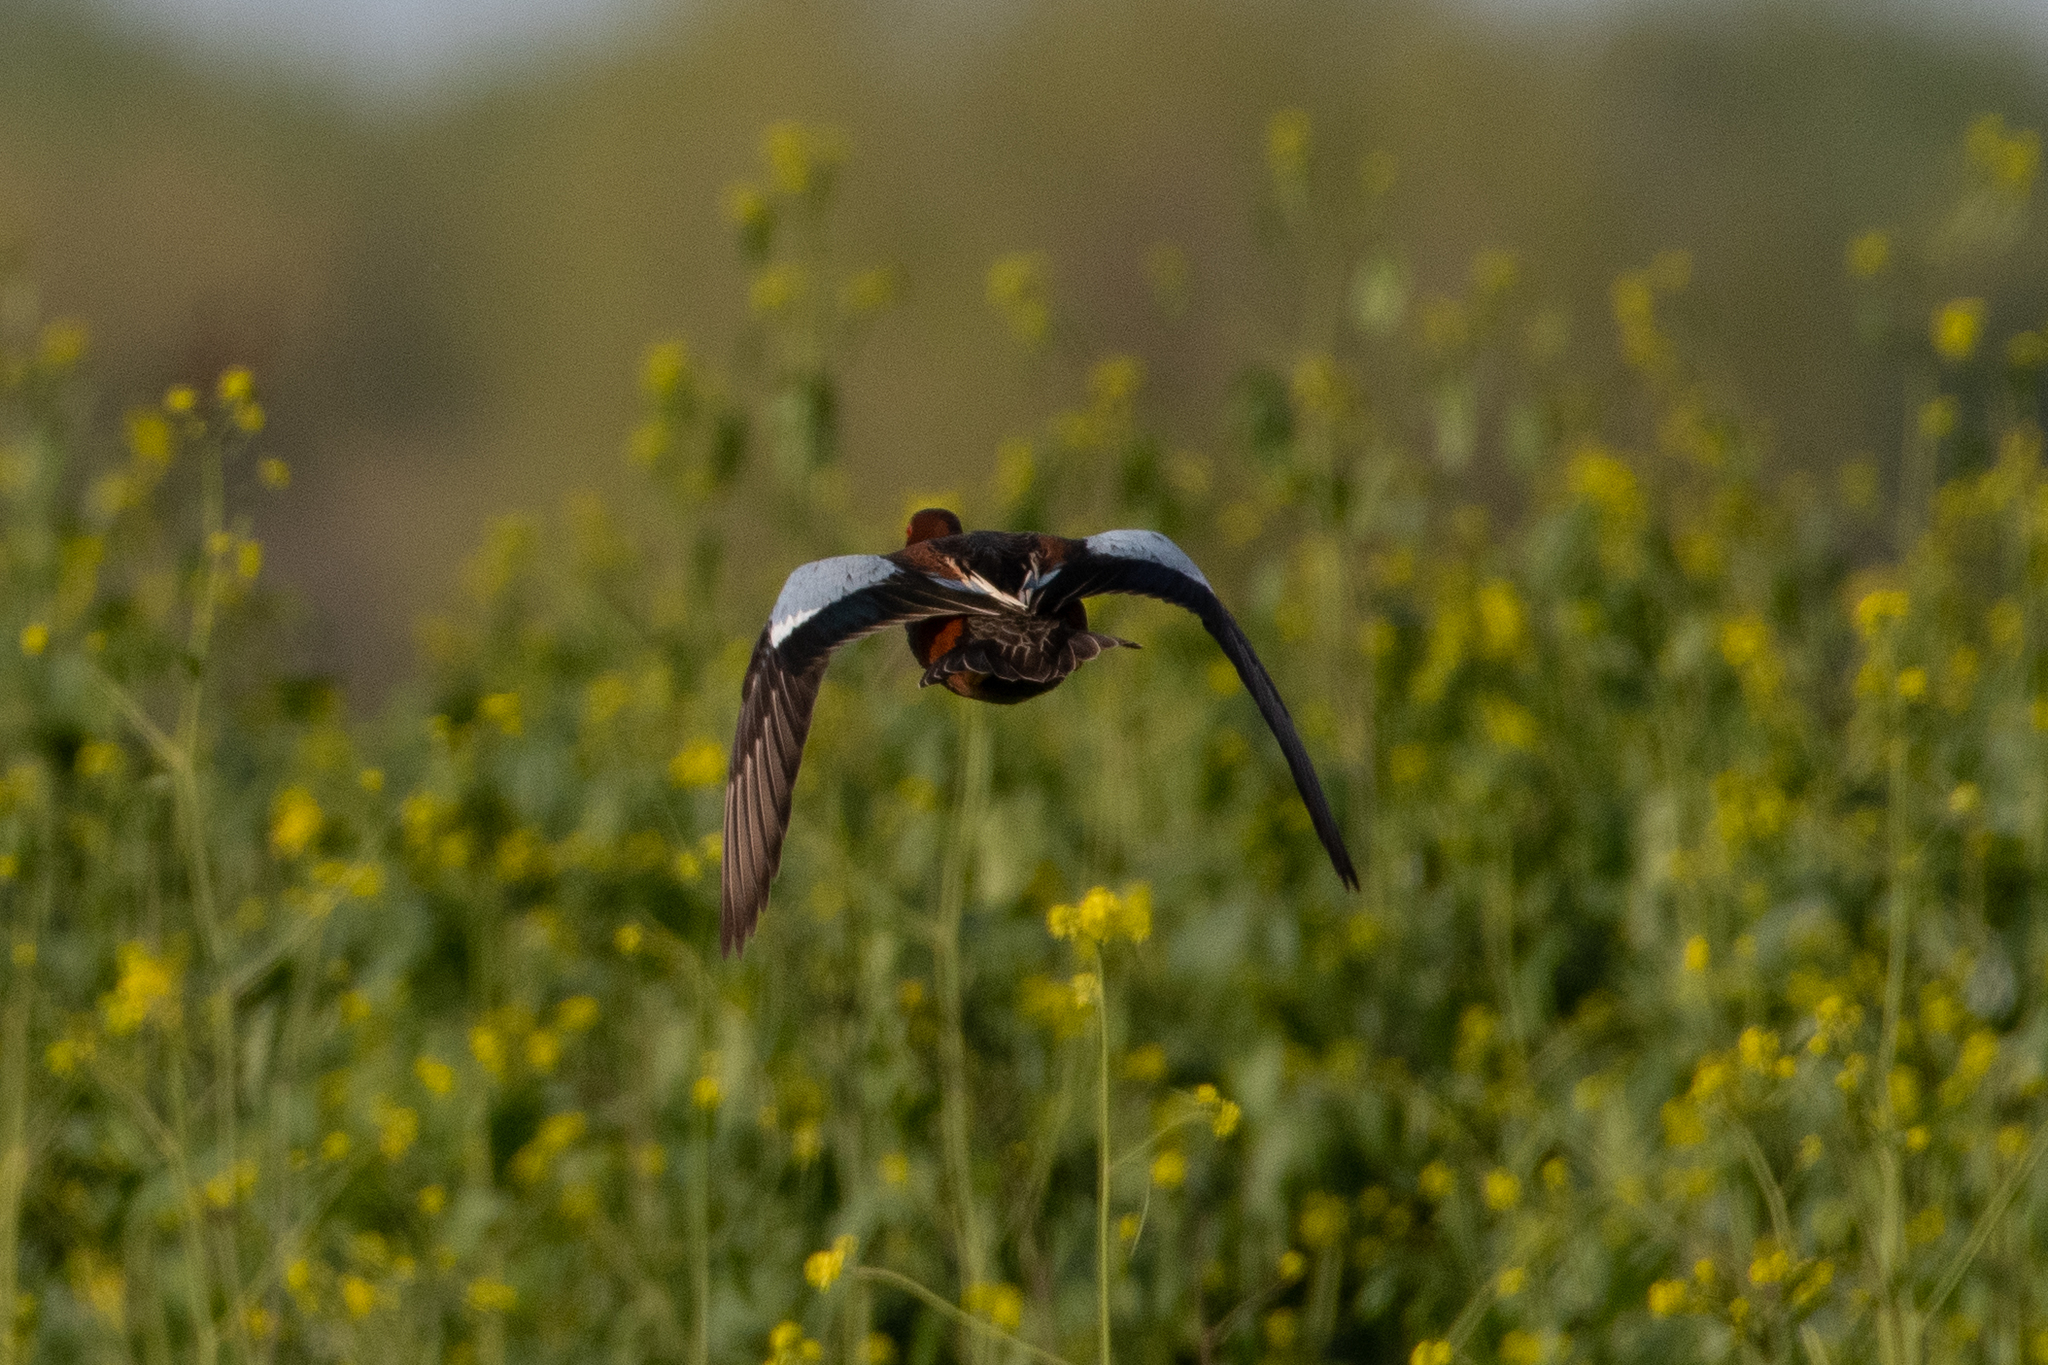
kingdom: Animalia
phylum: Chordata
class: Aves
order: Anseriformes
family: Anatidae
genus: Spatula
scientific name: Spatula cyanoptera
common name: Cinnamon teal
